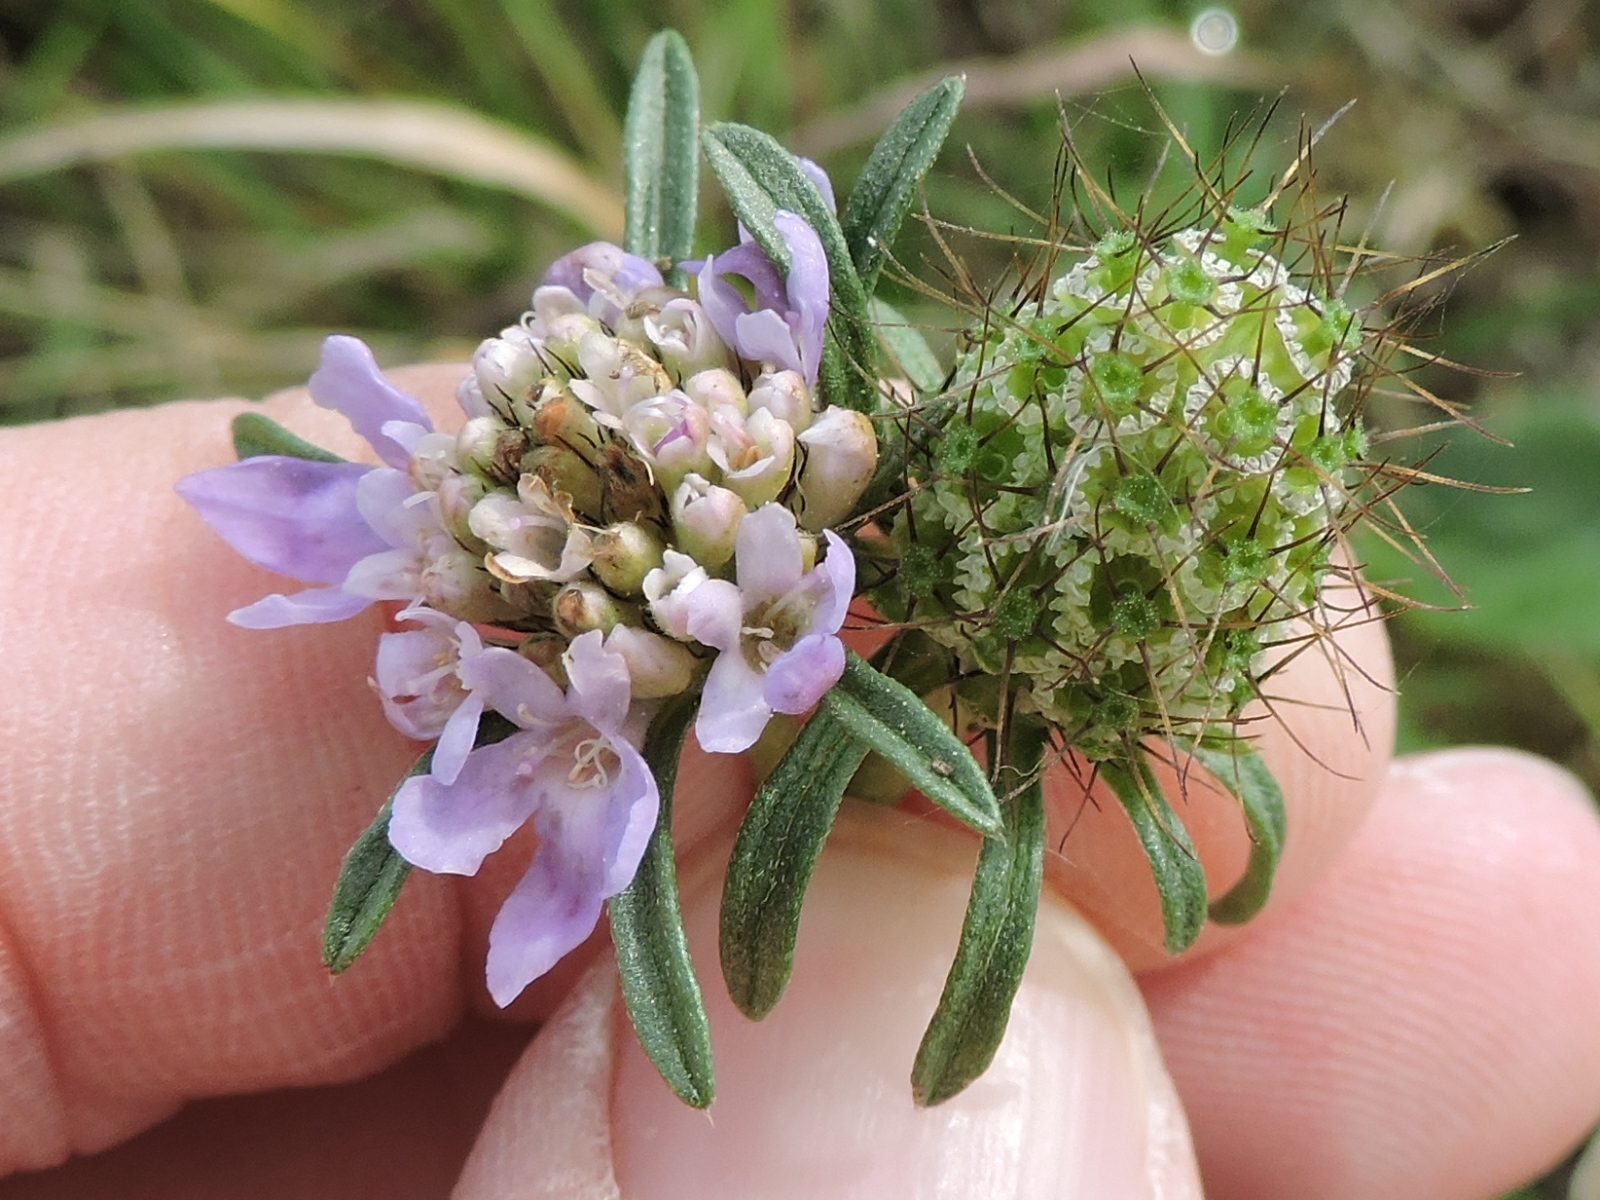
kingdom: Plantae
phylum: Tracheophyta
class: Magnoliopsida
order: Dipsacales
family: Caprifoliaceae
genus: Sixalix
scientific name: Sixalix atropurpurea
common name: Sweet scabious
